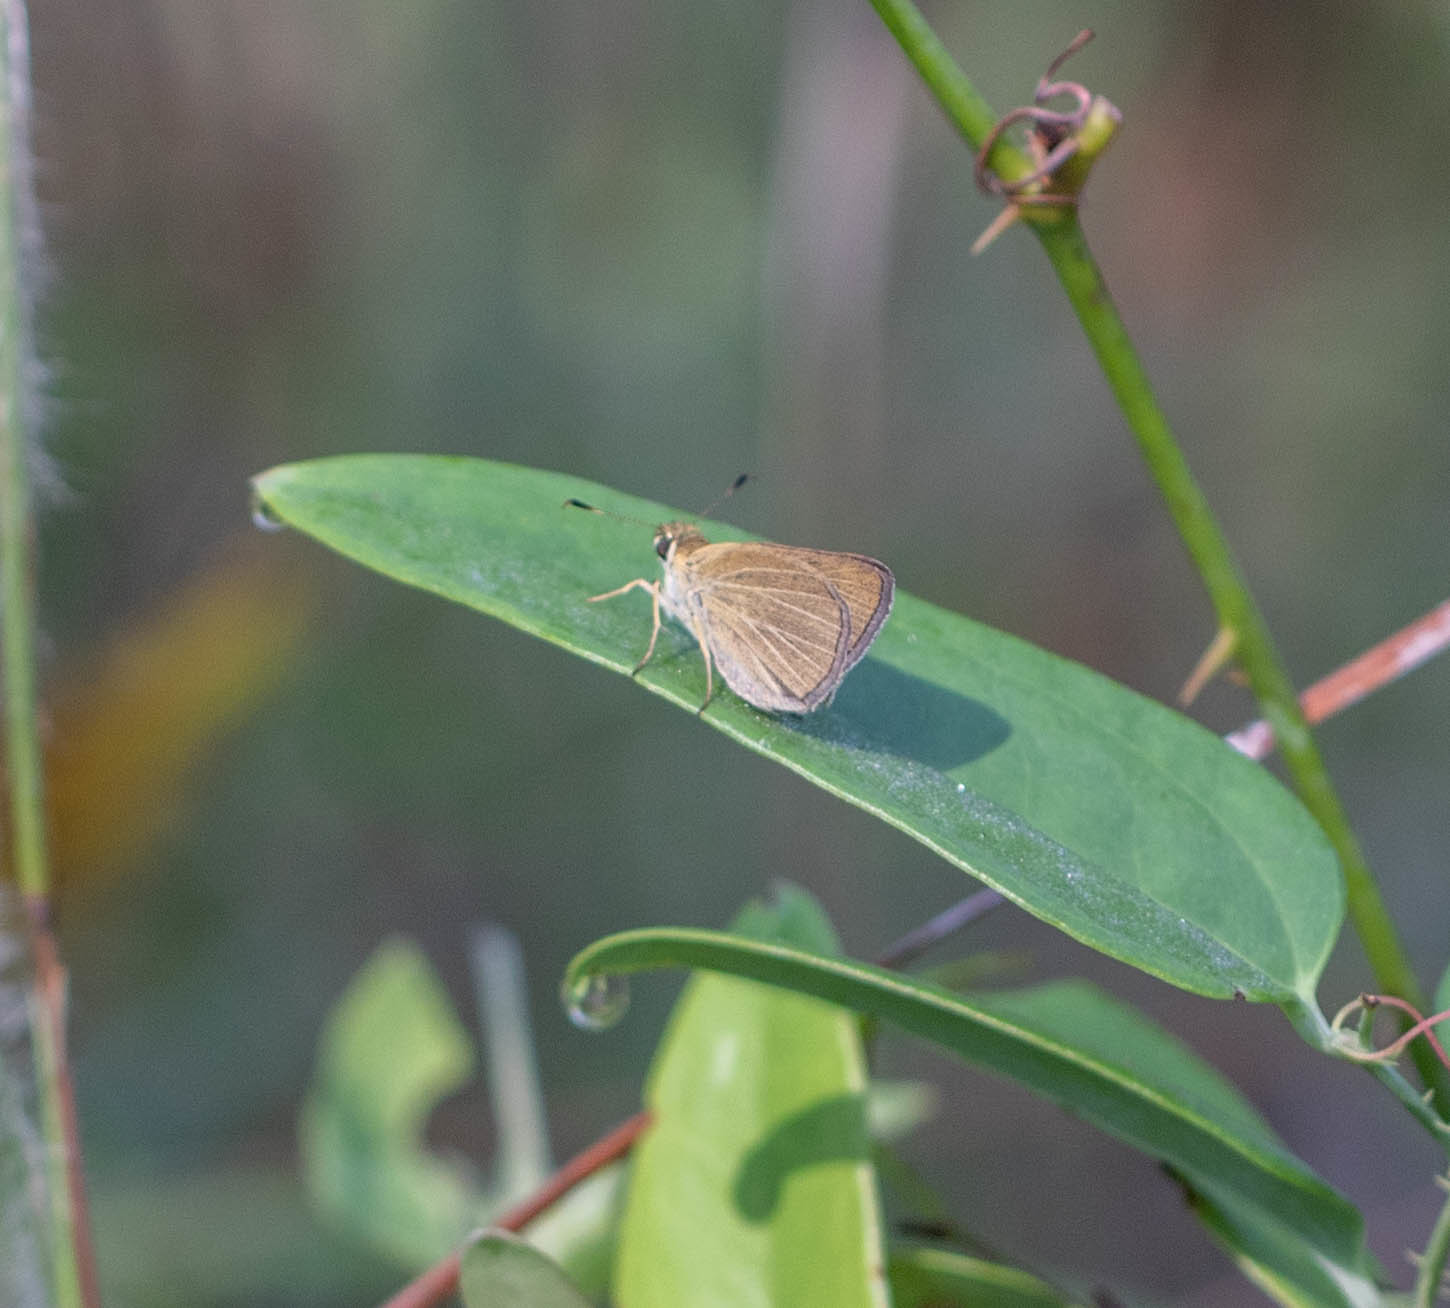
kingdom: Animalia
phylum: Arthropoda
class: Insecta
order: Lepidoptera
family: Hesperiidae
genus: Nastra
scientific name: Nastra lherminier
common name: Swarthy skipper
